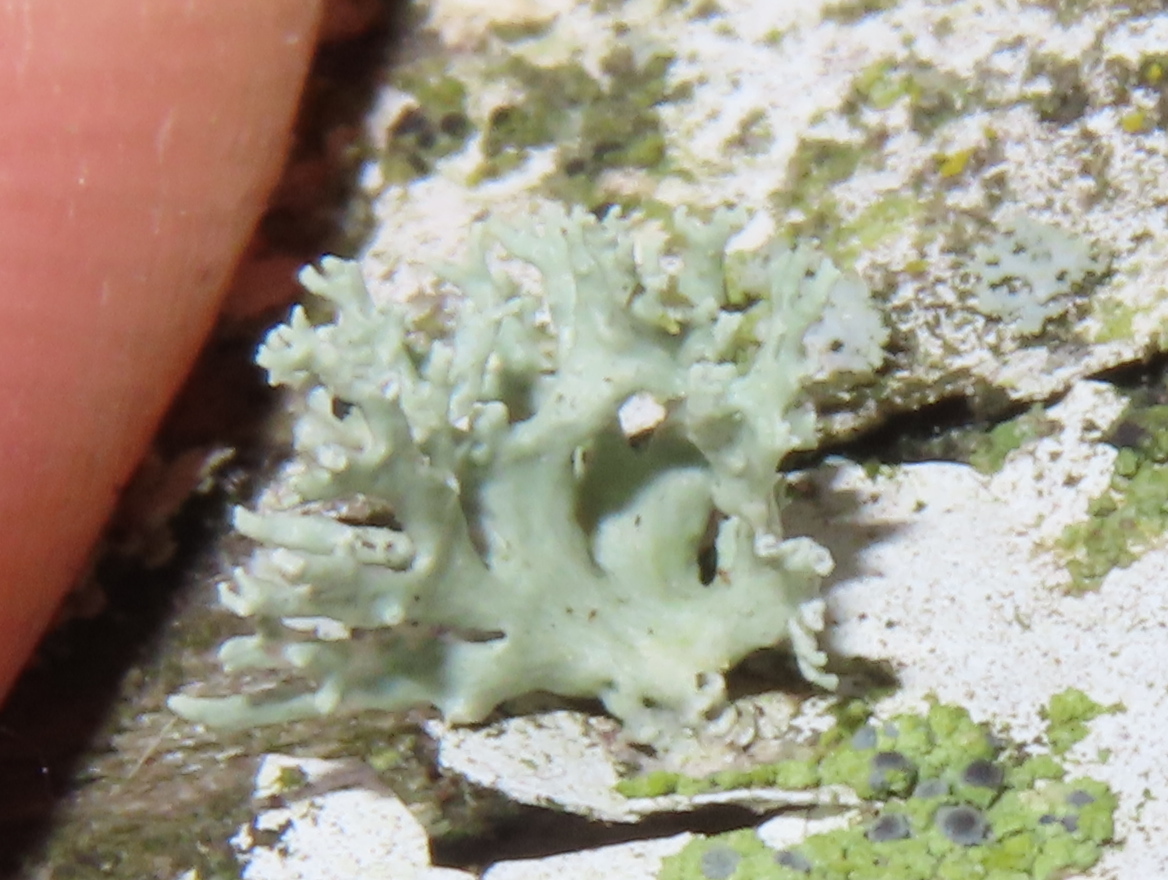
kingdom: Fungi
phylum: Ascomycota
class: Lecanoromycetes
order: Lecanorales
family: Ramalinaceae
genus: Ramalina
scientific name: Ramalina americana
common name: Sinewed bush lichen
